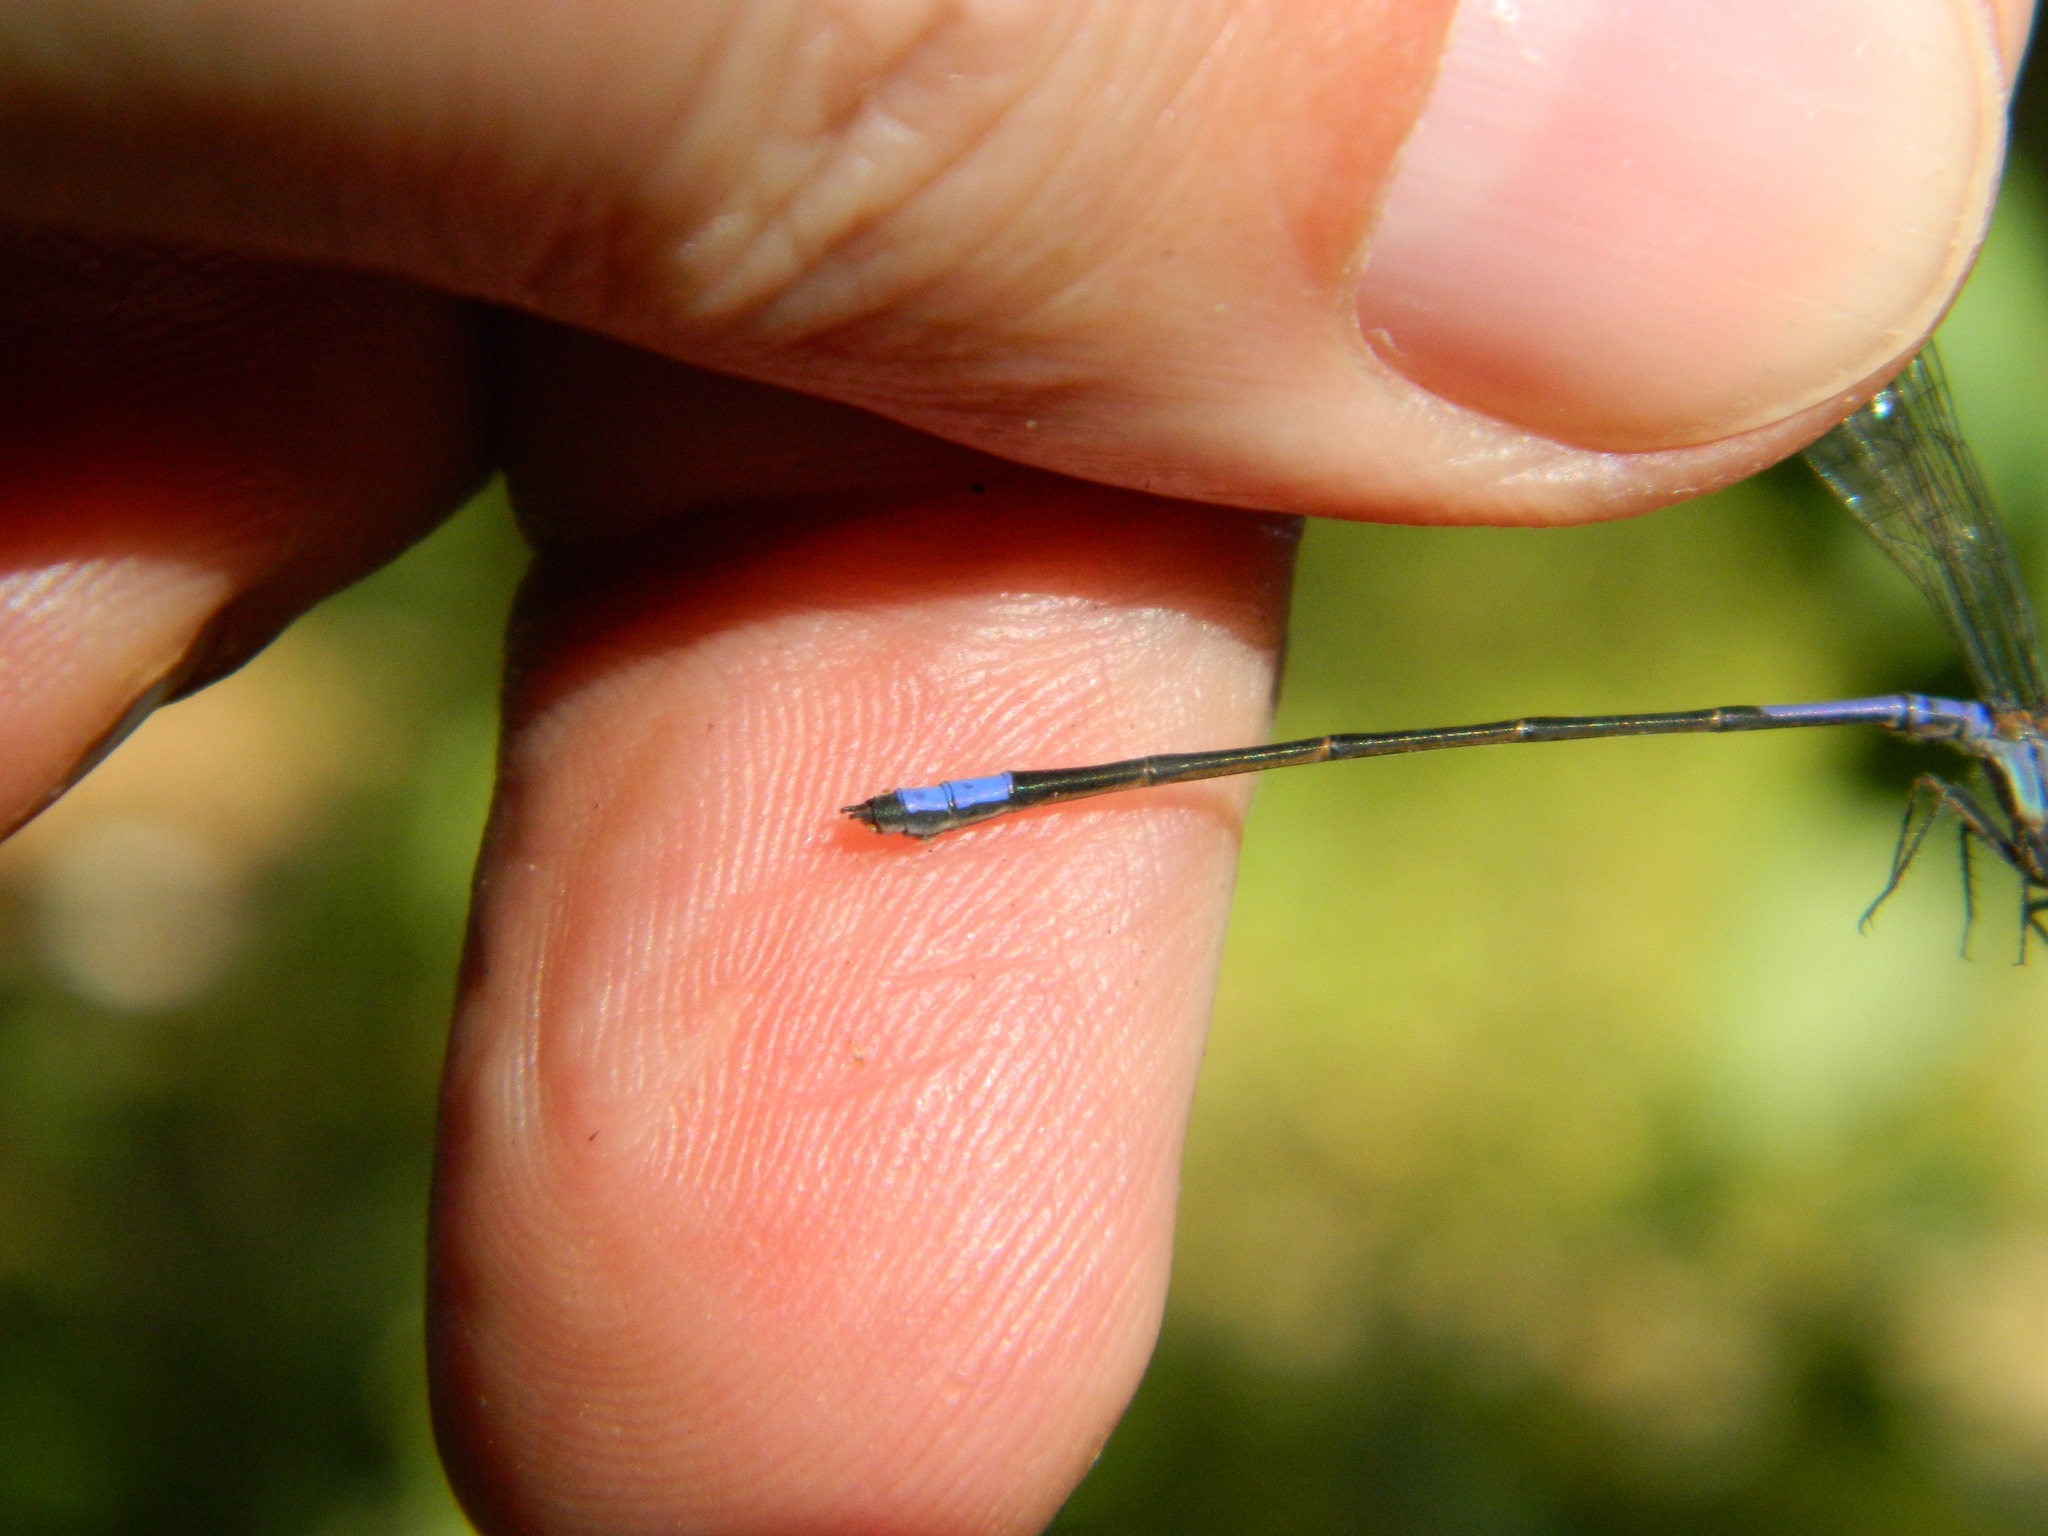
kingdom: Animalia
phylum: Arthropoda
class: Insecta
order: Odonata
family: Coenagrionidae
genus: Enallagma
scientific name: Enallagma coecum
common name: Antillean bluet
